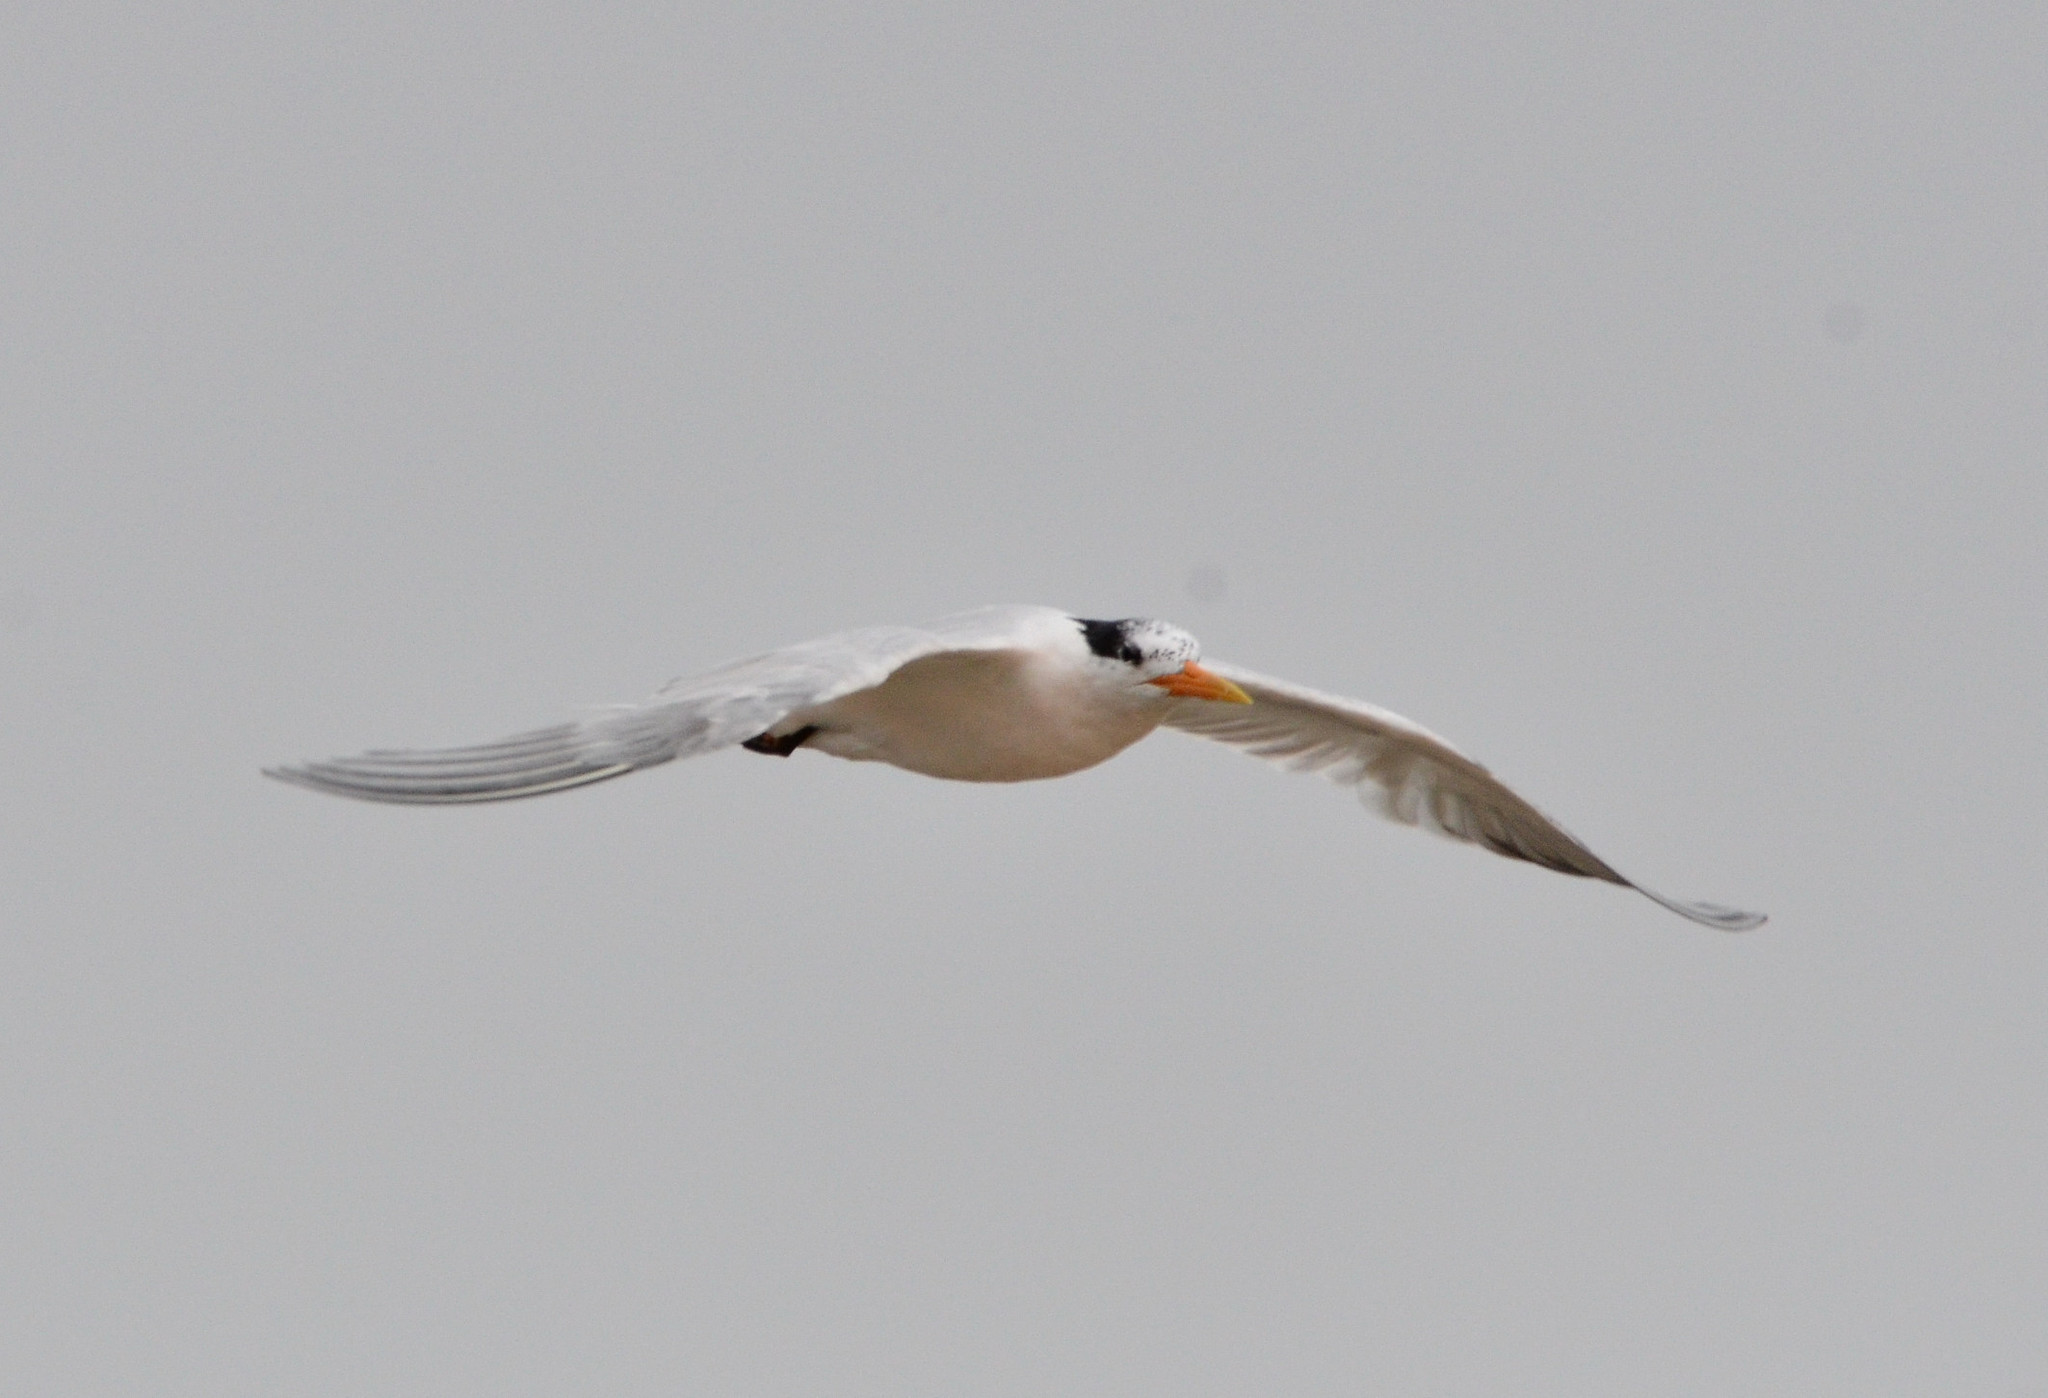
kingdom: Animalia
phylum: Chordata
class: Aves
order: Charadriiformes
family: Laridae
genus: Thalasseus
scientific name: Thalasseus elegans
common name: Elegant tern
